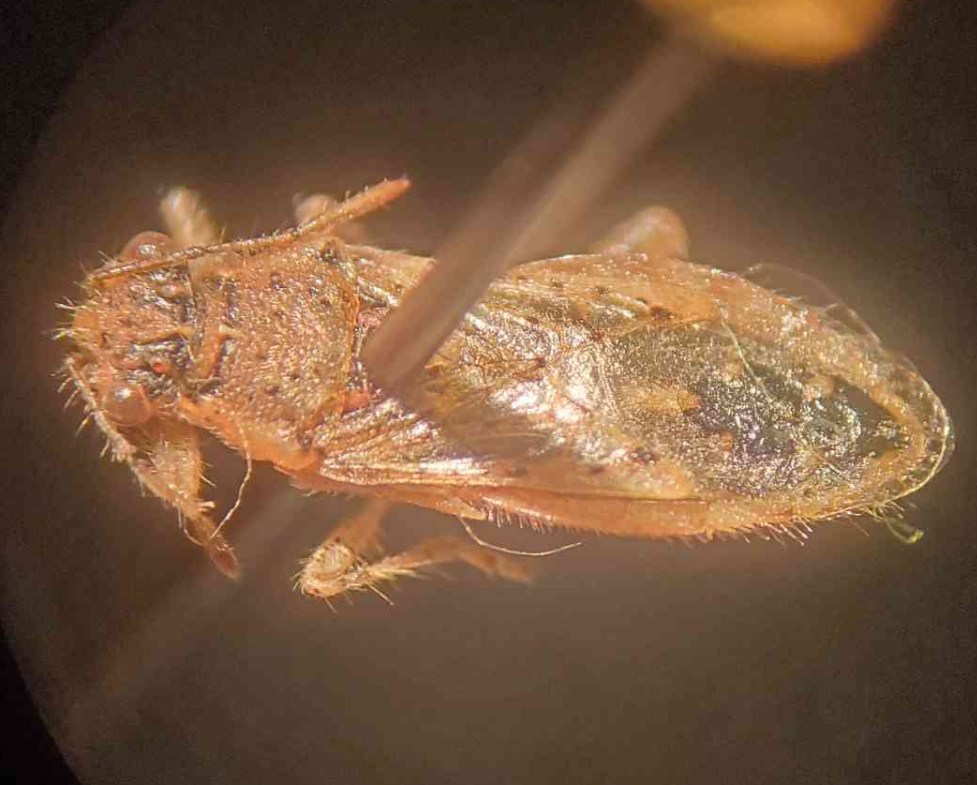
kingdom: Animalia
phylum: Arthropoda
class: Insecta
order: Hemiptera
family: Rhopalidae
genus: Brachycarenus
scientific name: Brachycarenus tigrinus
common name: Scentless plant bug
